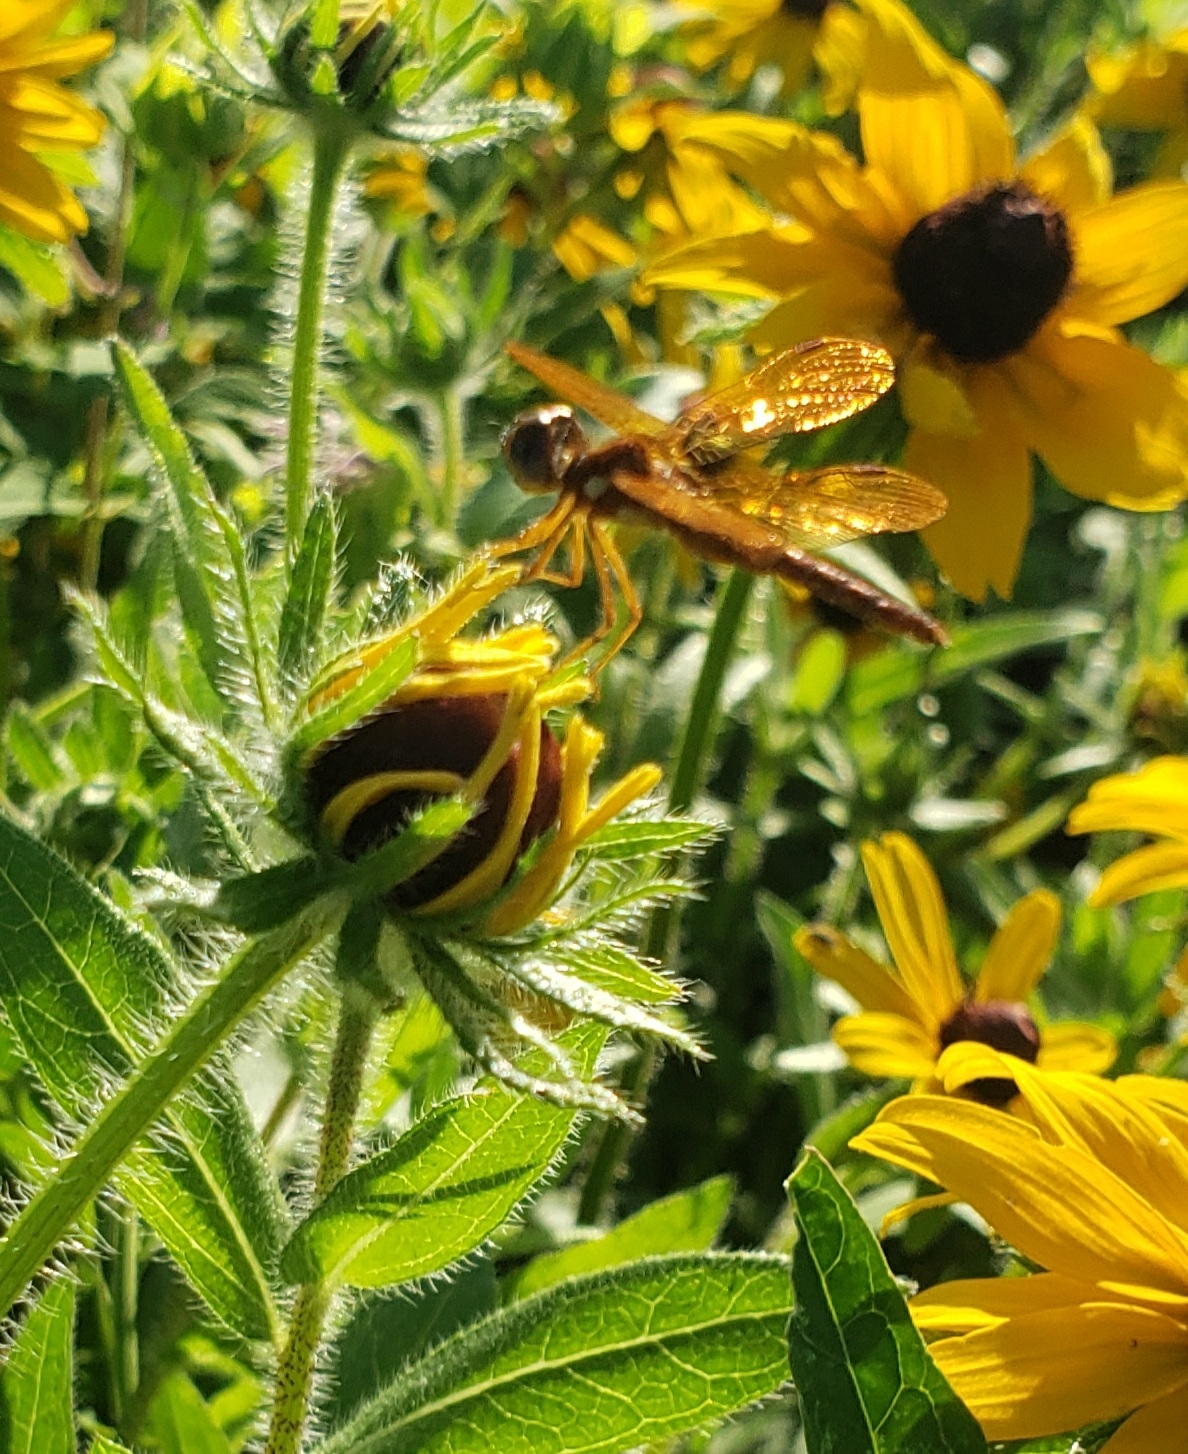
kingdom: Animalia
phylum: Arthropoda
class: Insecta
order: Odonata
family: Libellulidae
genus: Perithemis
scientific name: Perithemis tenera
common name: Eastern amberwing
